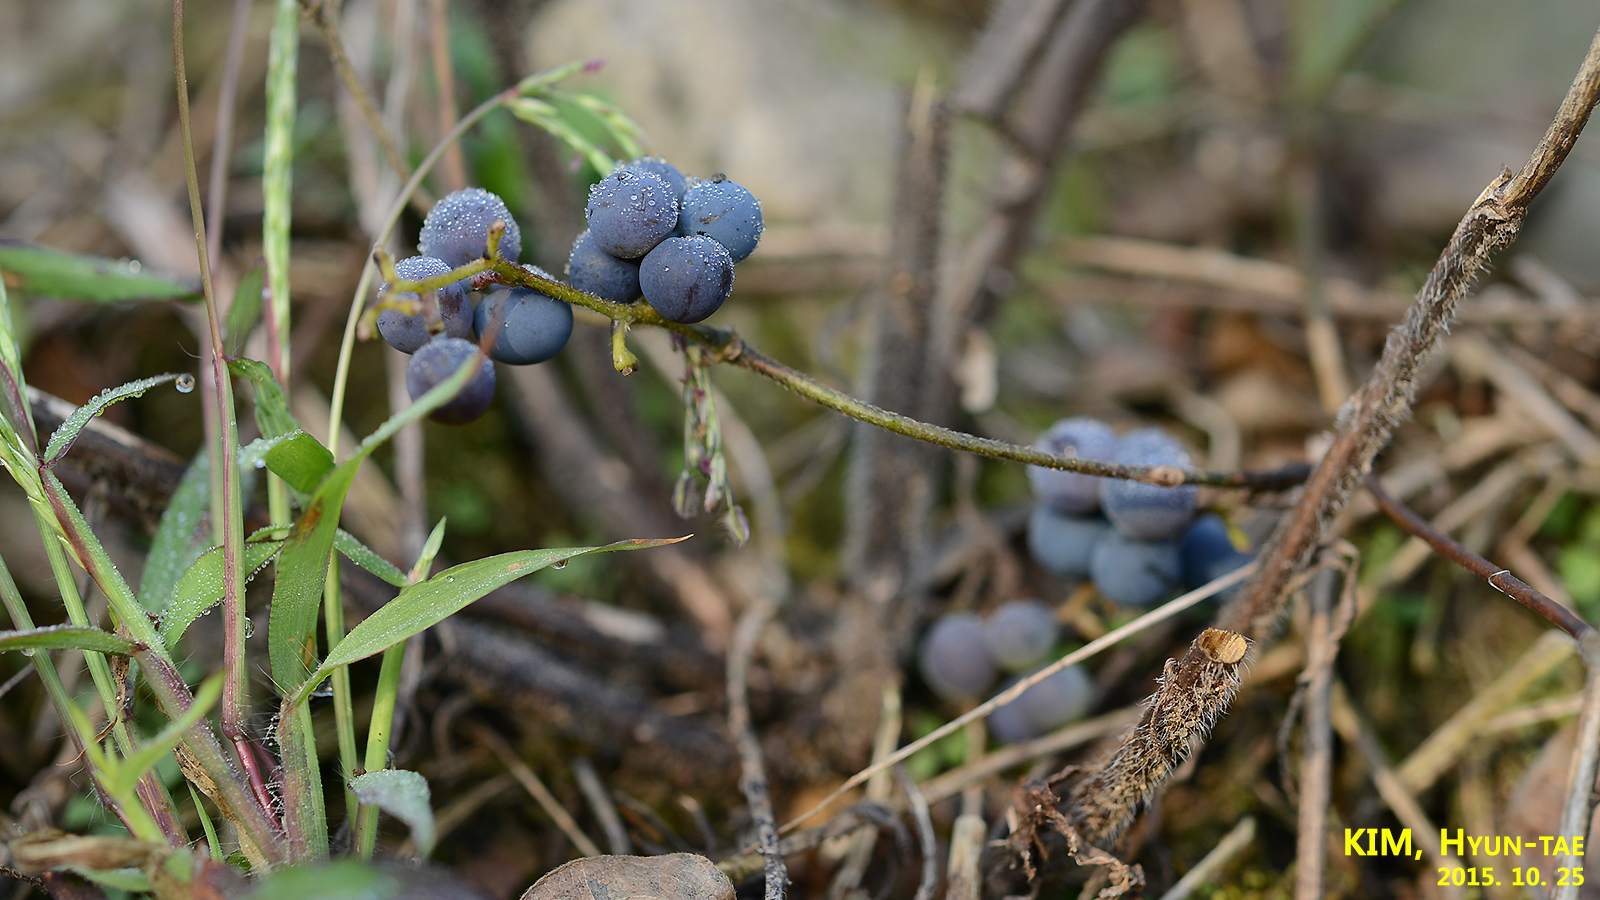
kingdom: Plantae
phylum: Tracheophyta
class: Magnoliopsida
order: Ranunculales
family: Menispermaceae
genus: Cocculus
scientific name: Cocculus orbiculatus
